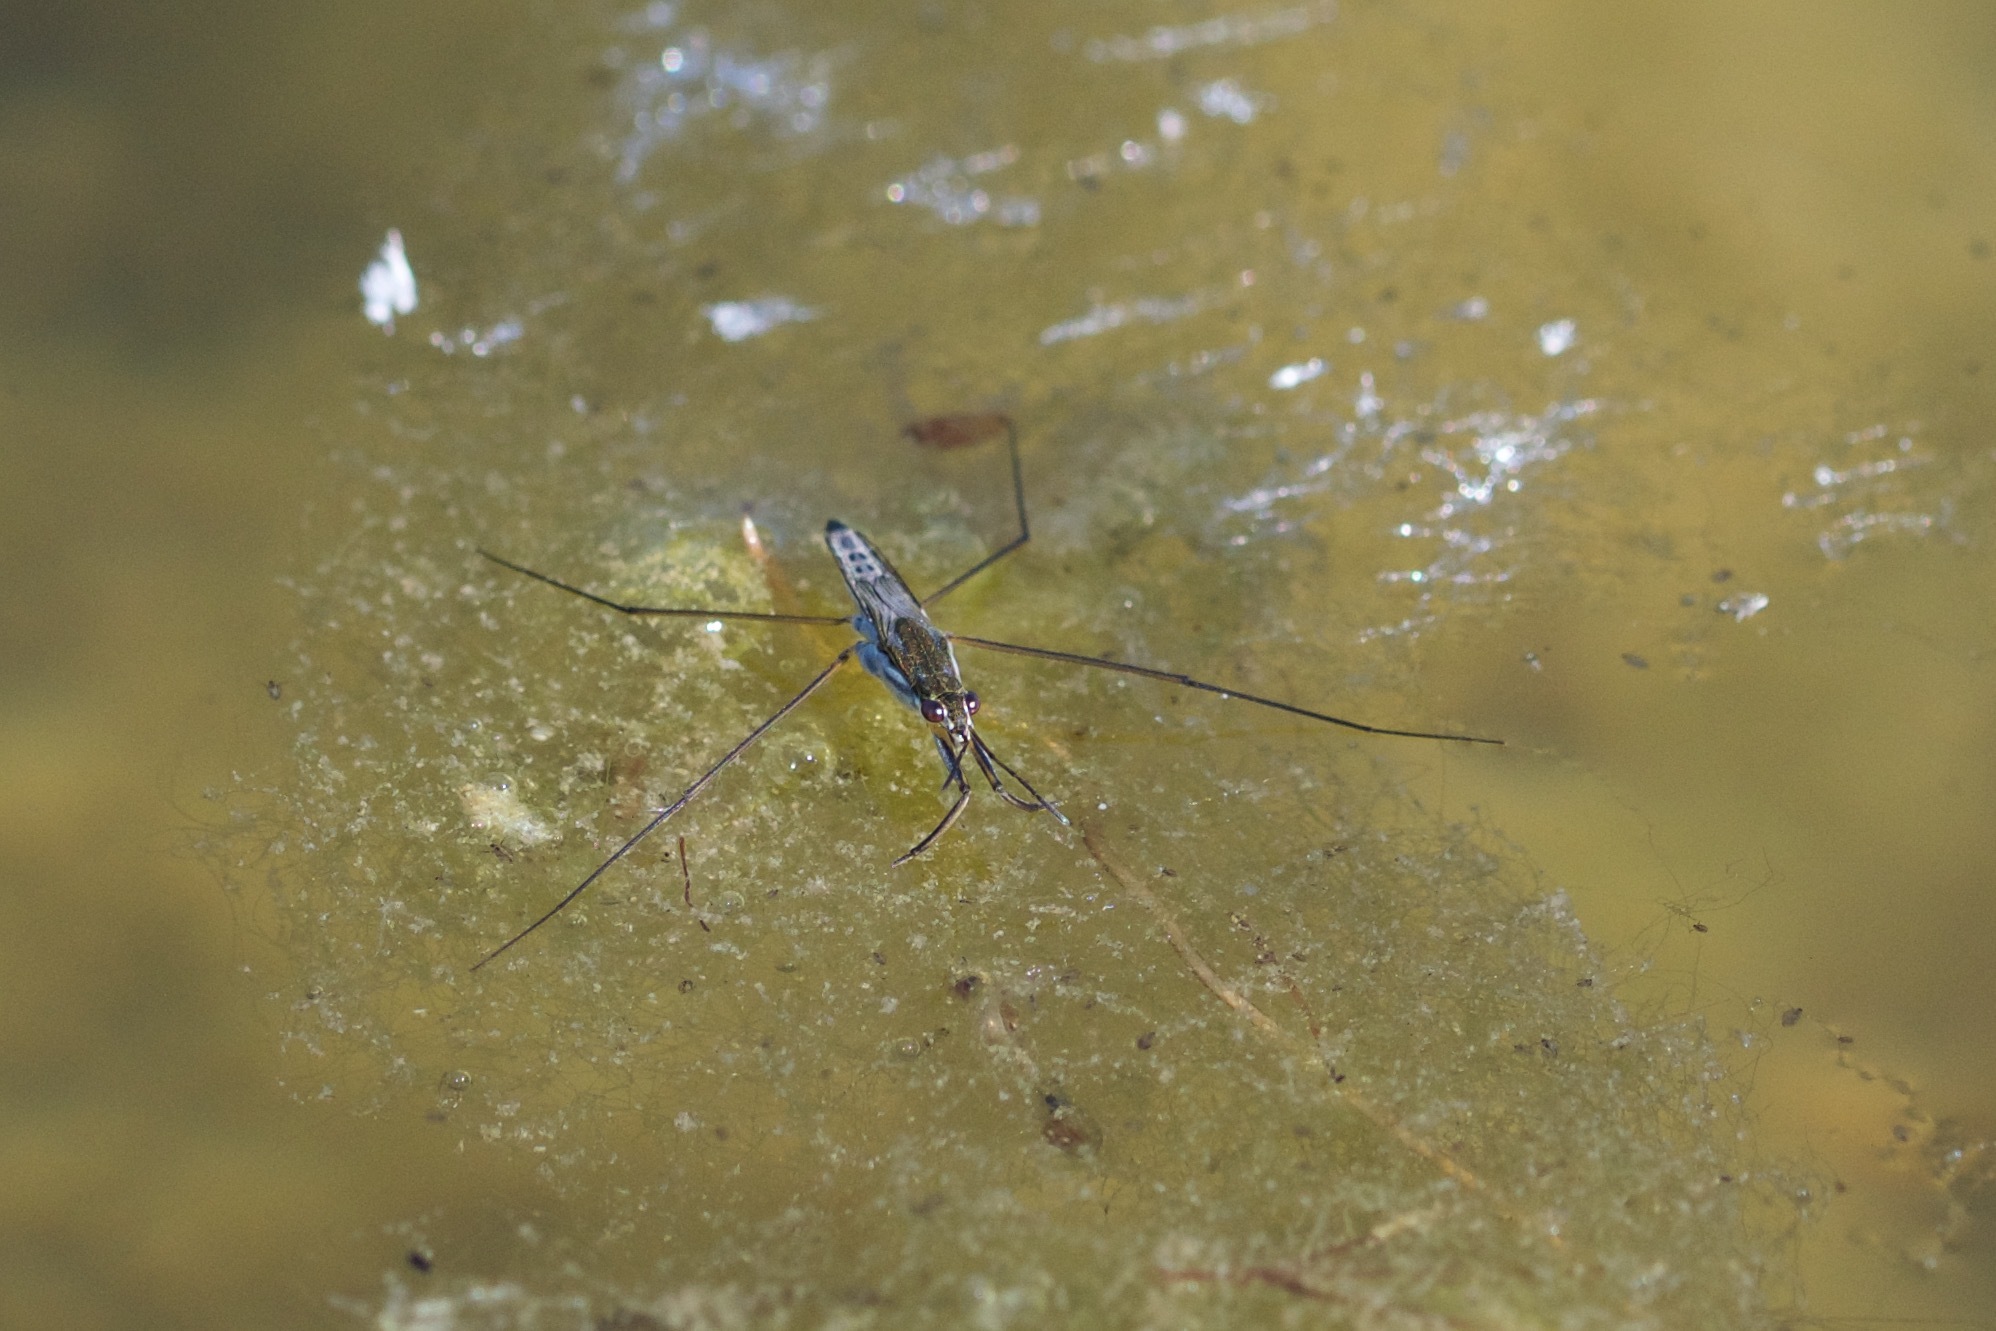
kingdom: Animalia
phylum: Arthropoda
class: Insecta
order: Hemiptera
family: Gerridae
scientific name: Gerridae
